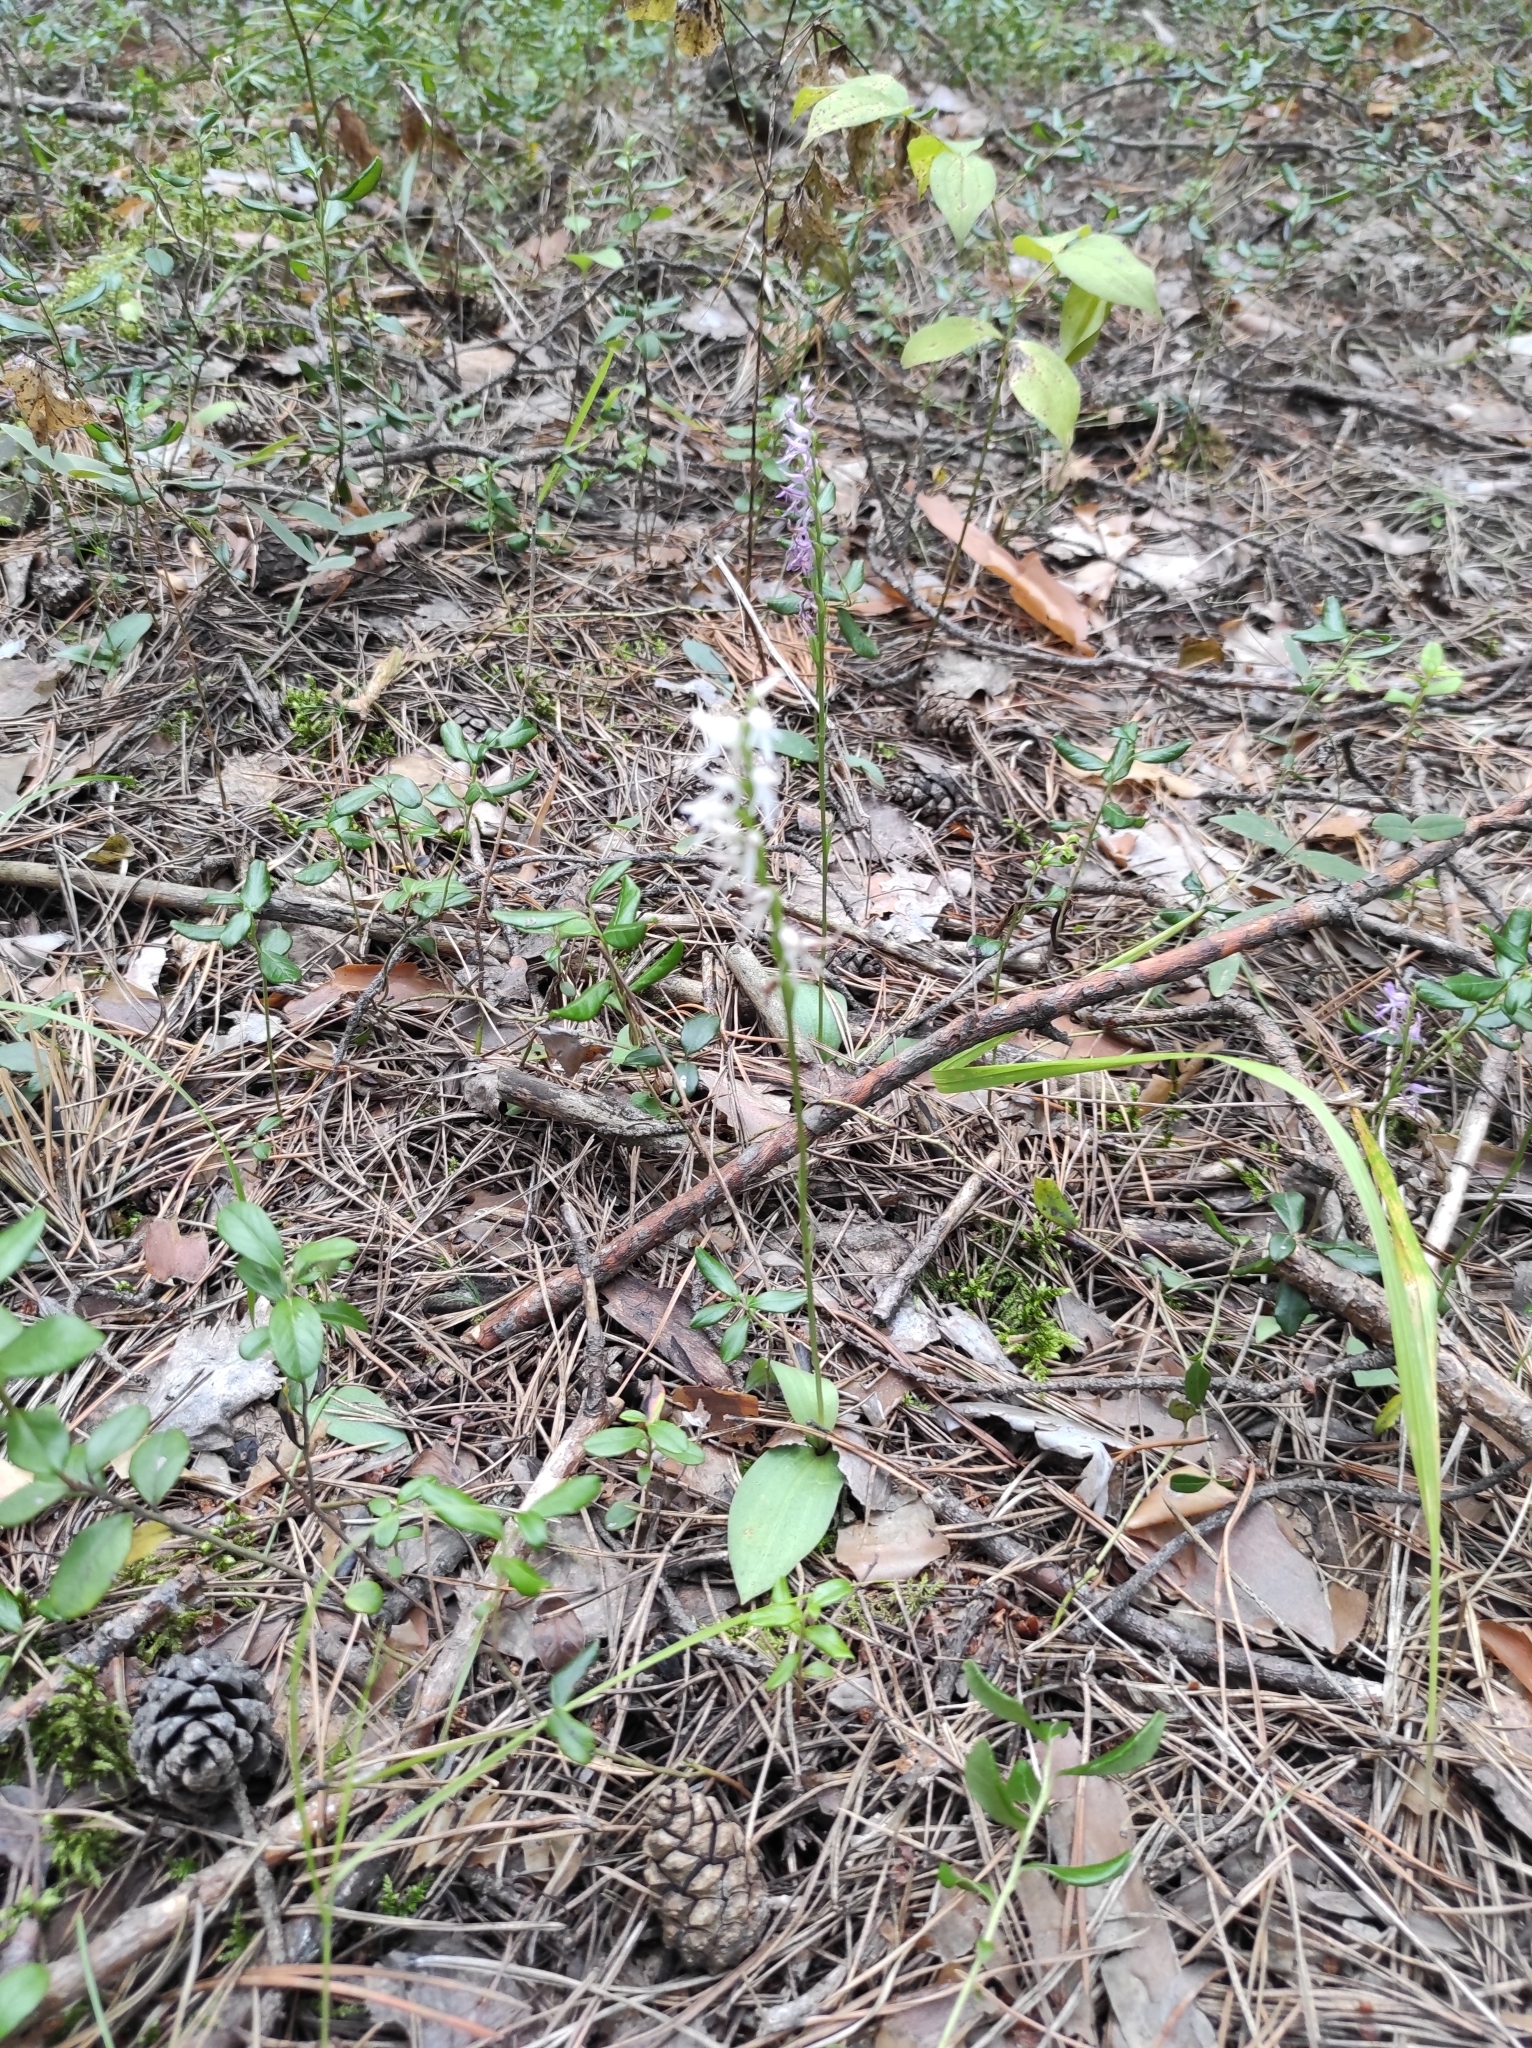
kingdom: Plantae
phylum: Tracheophyta
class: Liliopsida
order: Asparagales
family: Orchidaceae
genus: Hemipilia
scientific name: Hemipilia cucullata
